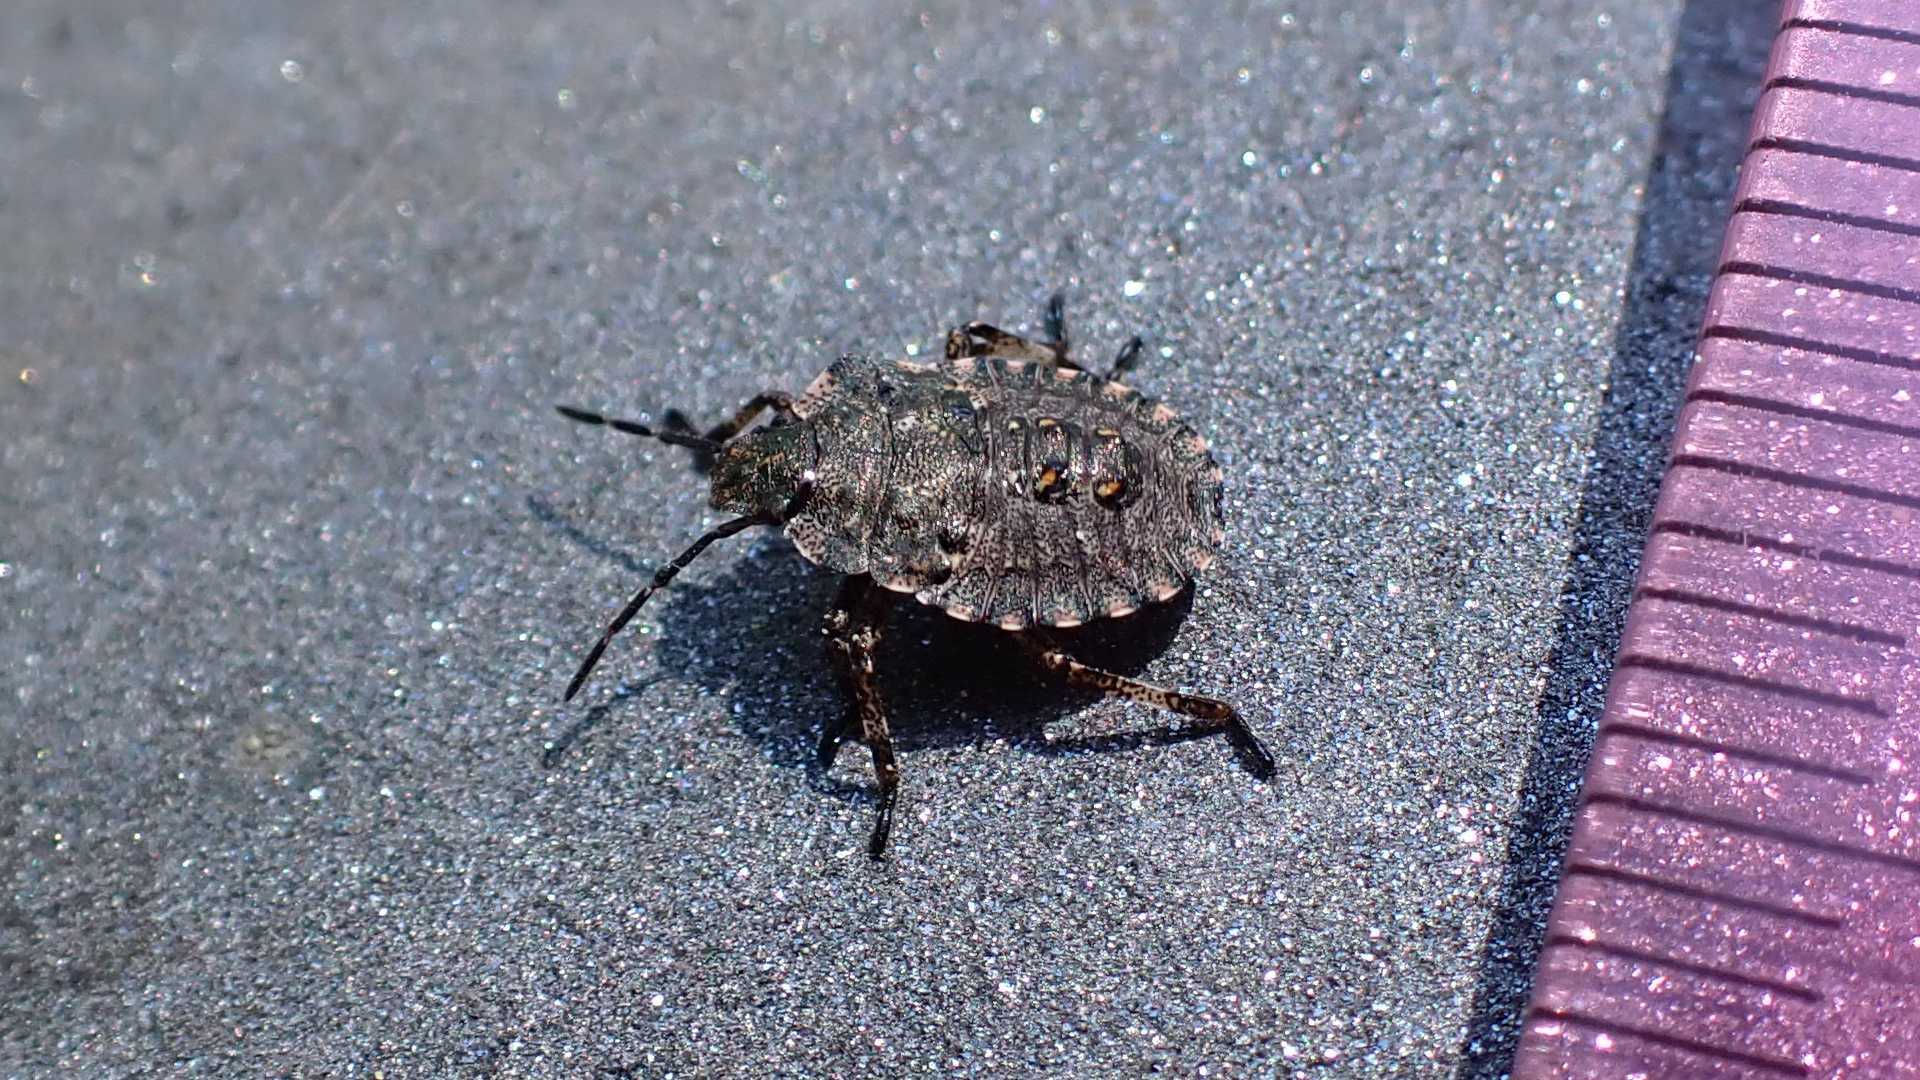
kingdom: Animalia
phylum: Arthropoda
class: Insecta
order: Hemiptera
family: Pentatomidae
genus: Pentatoma
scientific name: Pentatoma rufipes
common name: Forest bug
